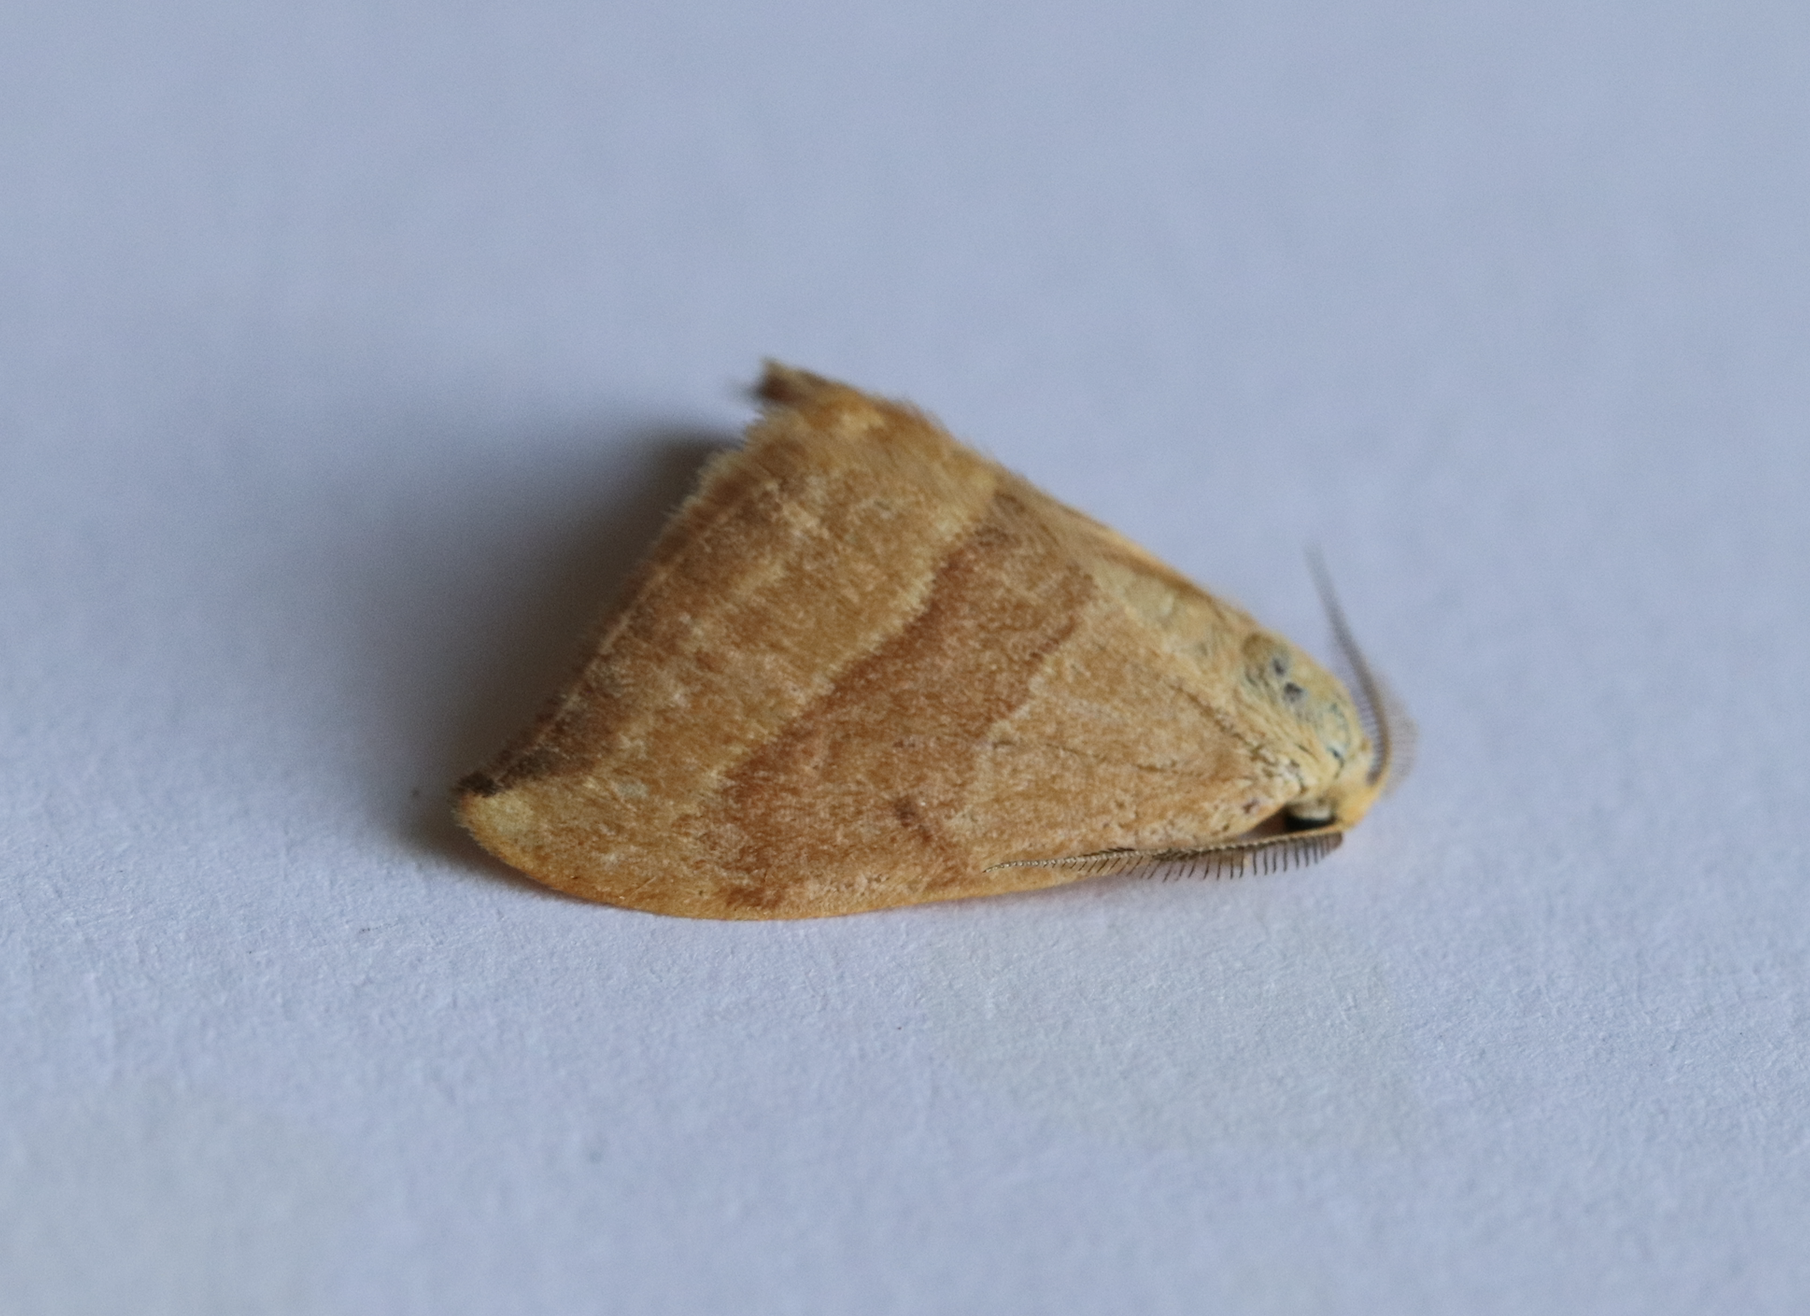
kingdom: Animalia
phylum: Arthropoda
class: Insecta
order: Lepidoptera
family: Drepanidae
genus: Watsonalla
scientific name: Watsonalla cultraria
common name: Barred hook-tip
